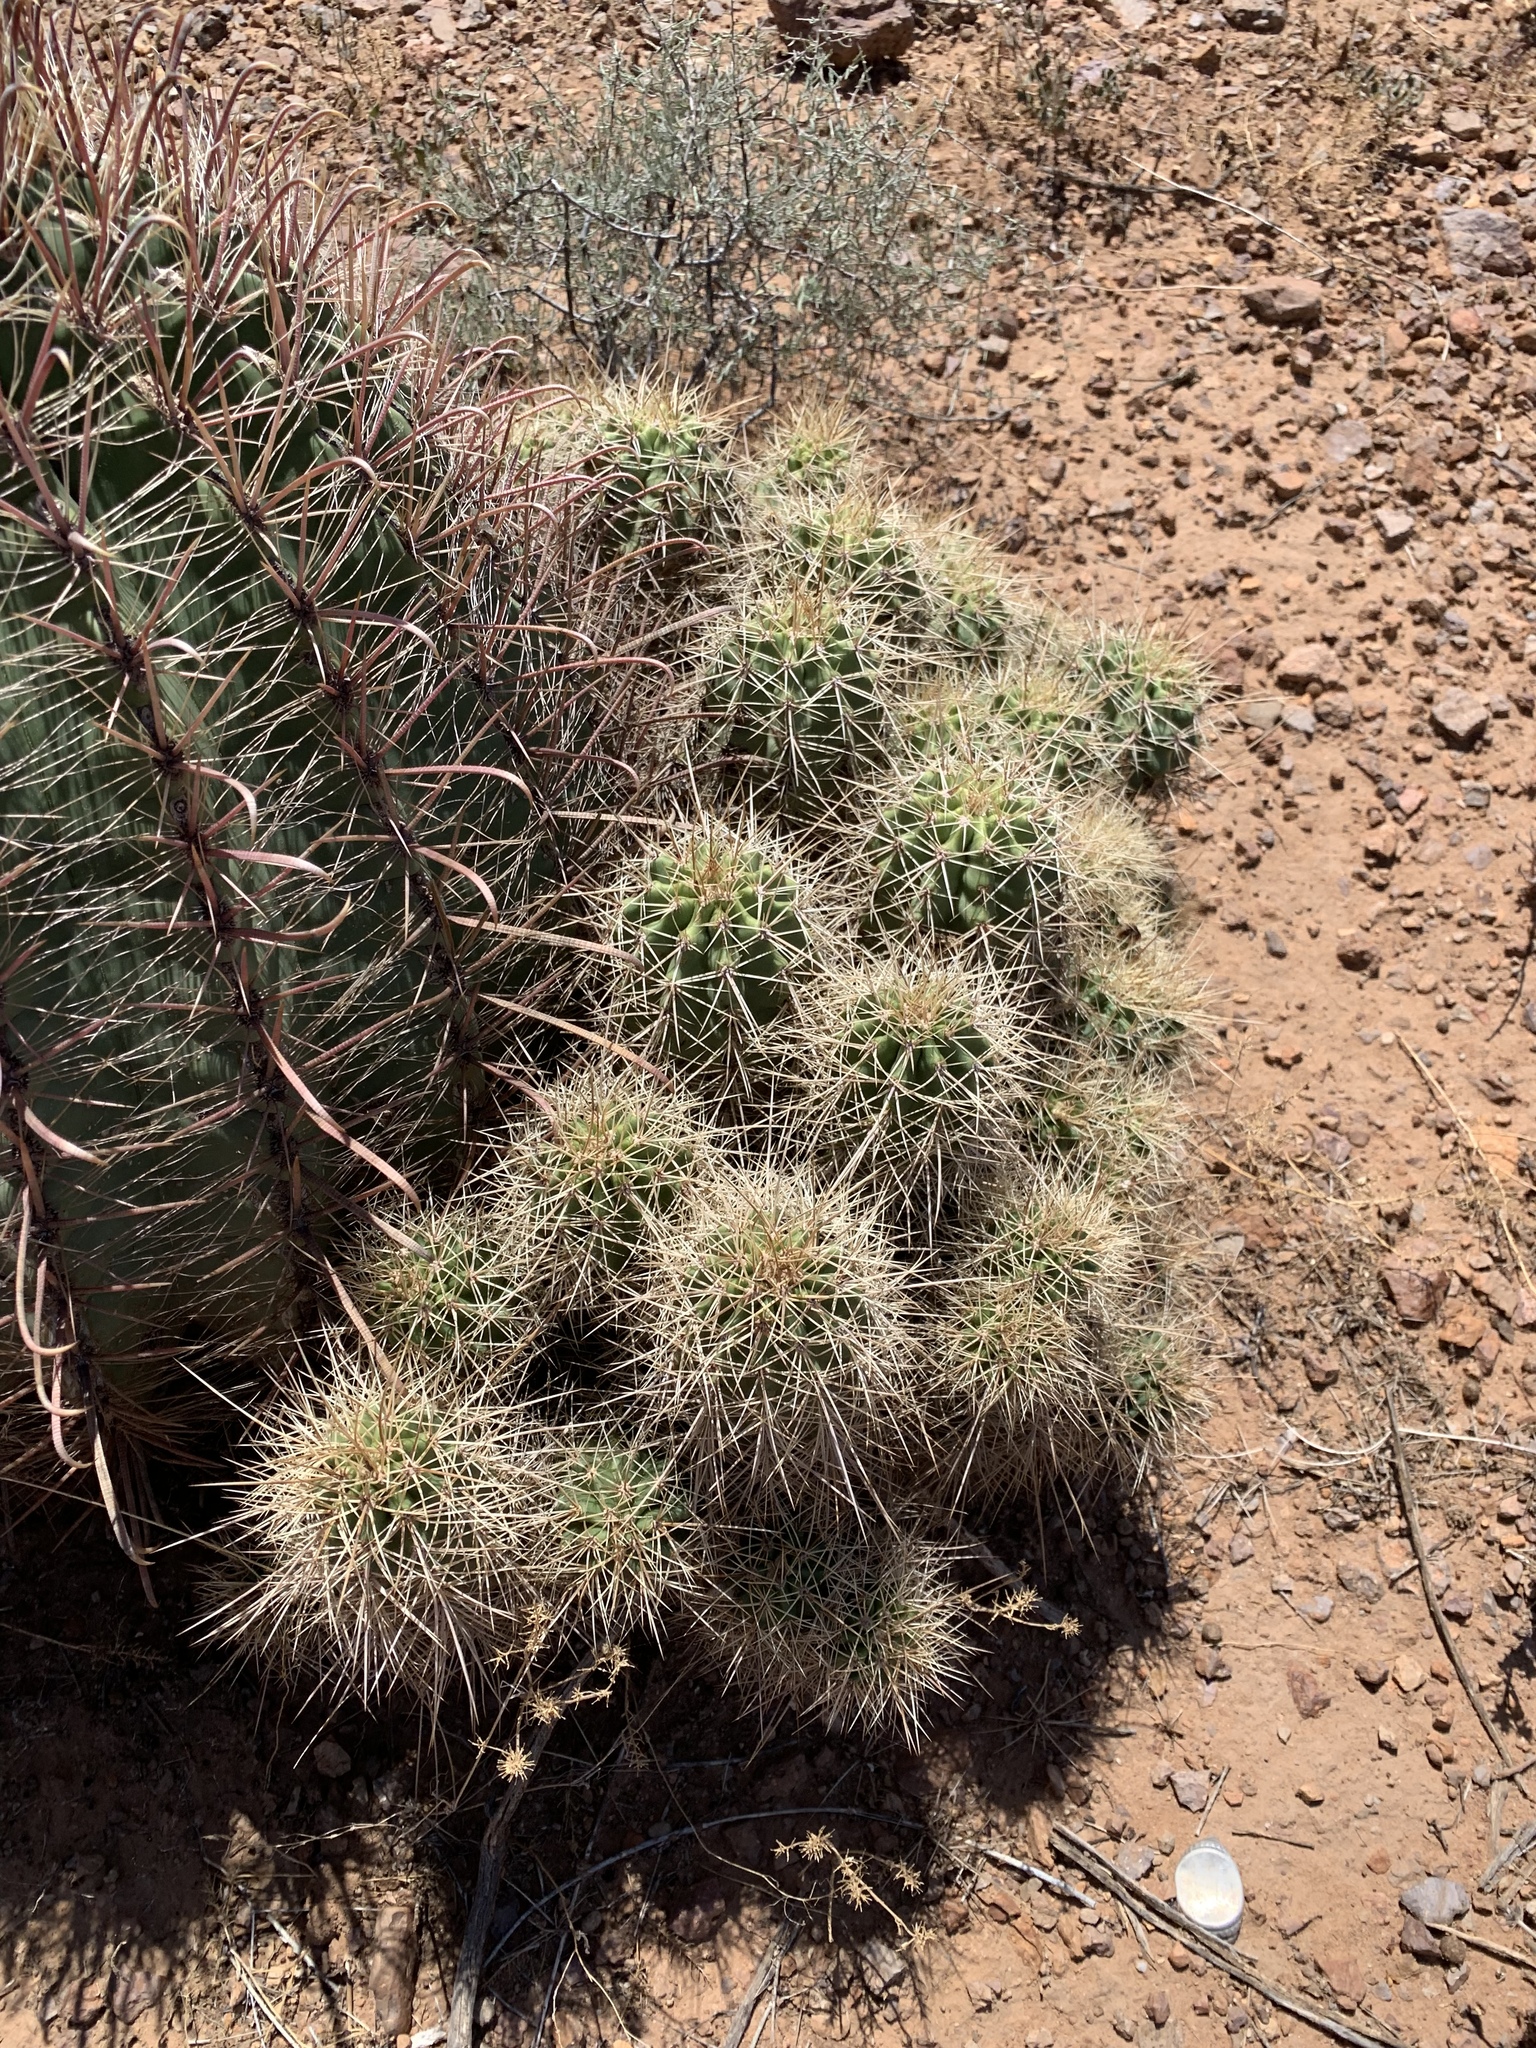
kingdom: Plantae
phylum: Tracheophyta
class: Magnoliopsida
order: Caryophyllales
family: Cactaceae
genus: Echinocereus
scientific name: Echinocereus coccineus
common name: Scarlet hedgehog cactus
